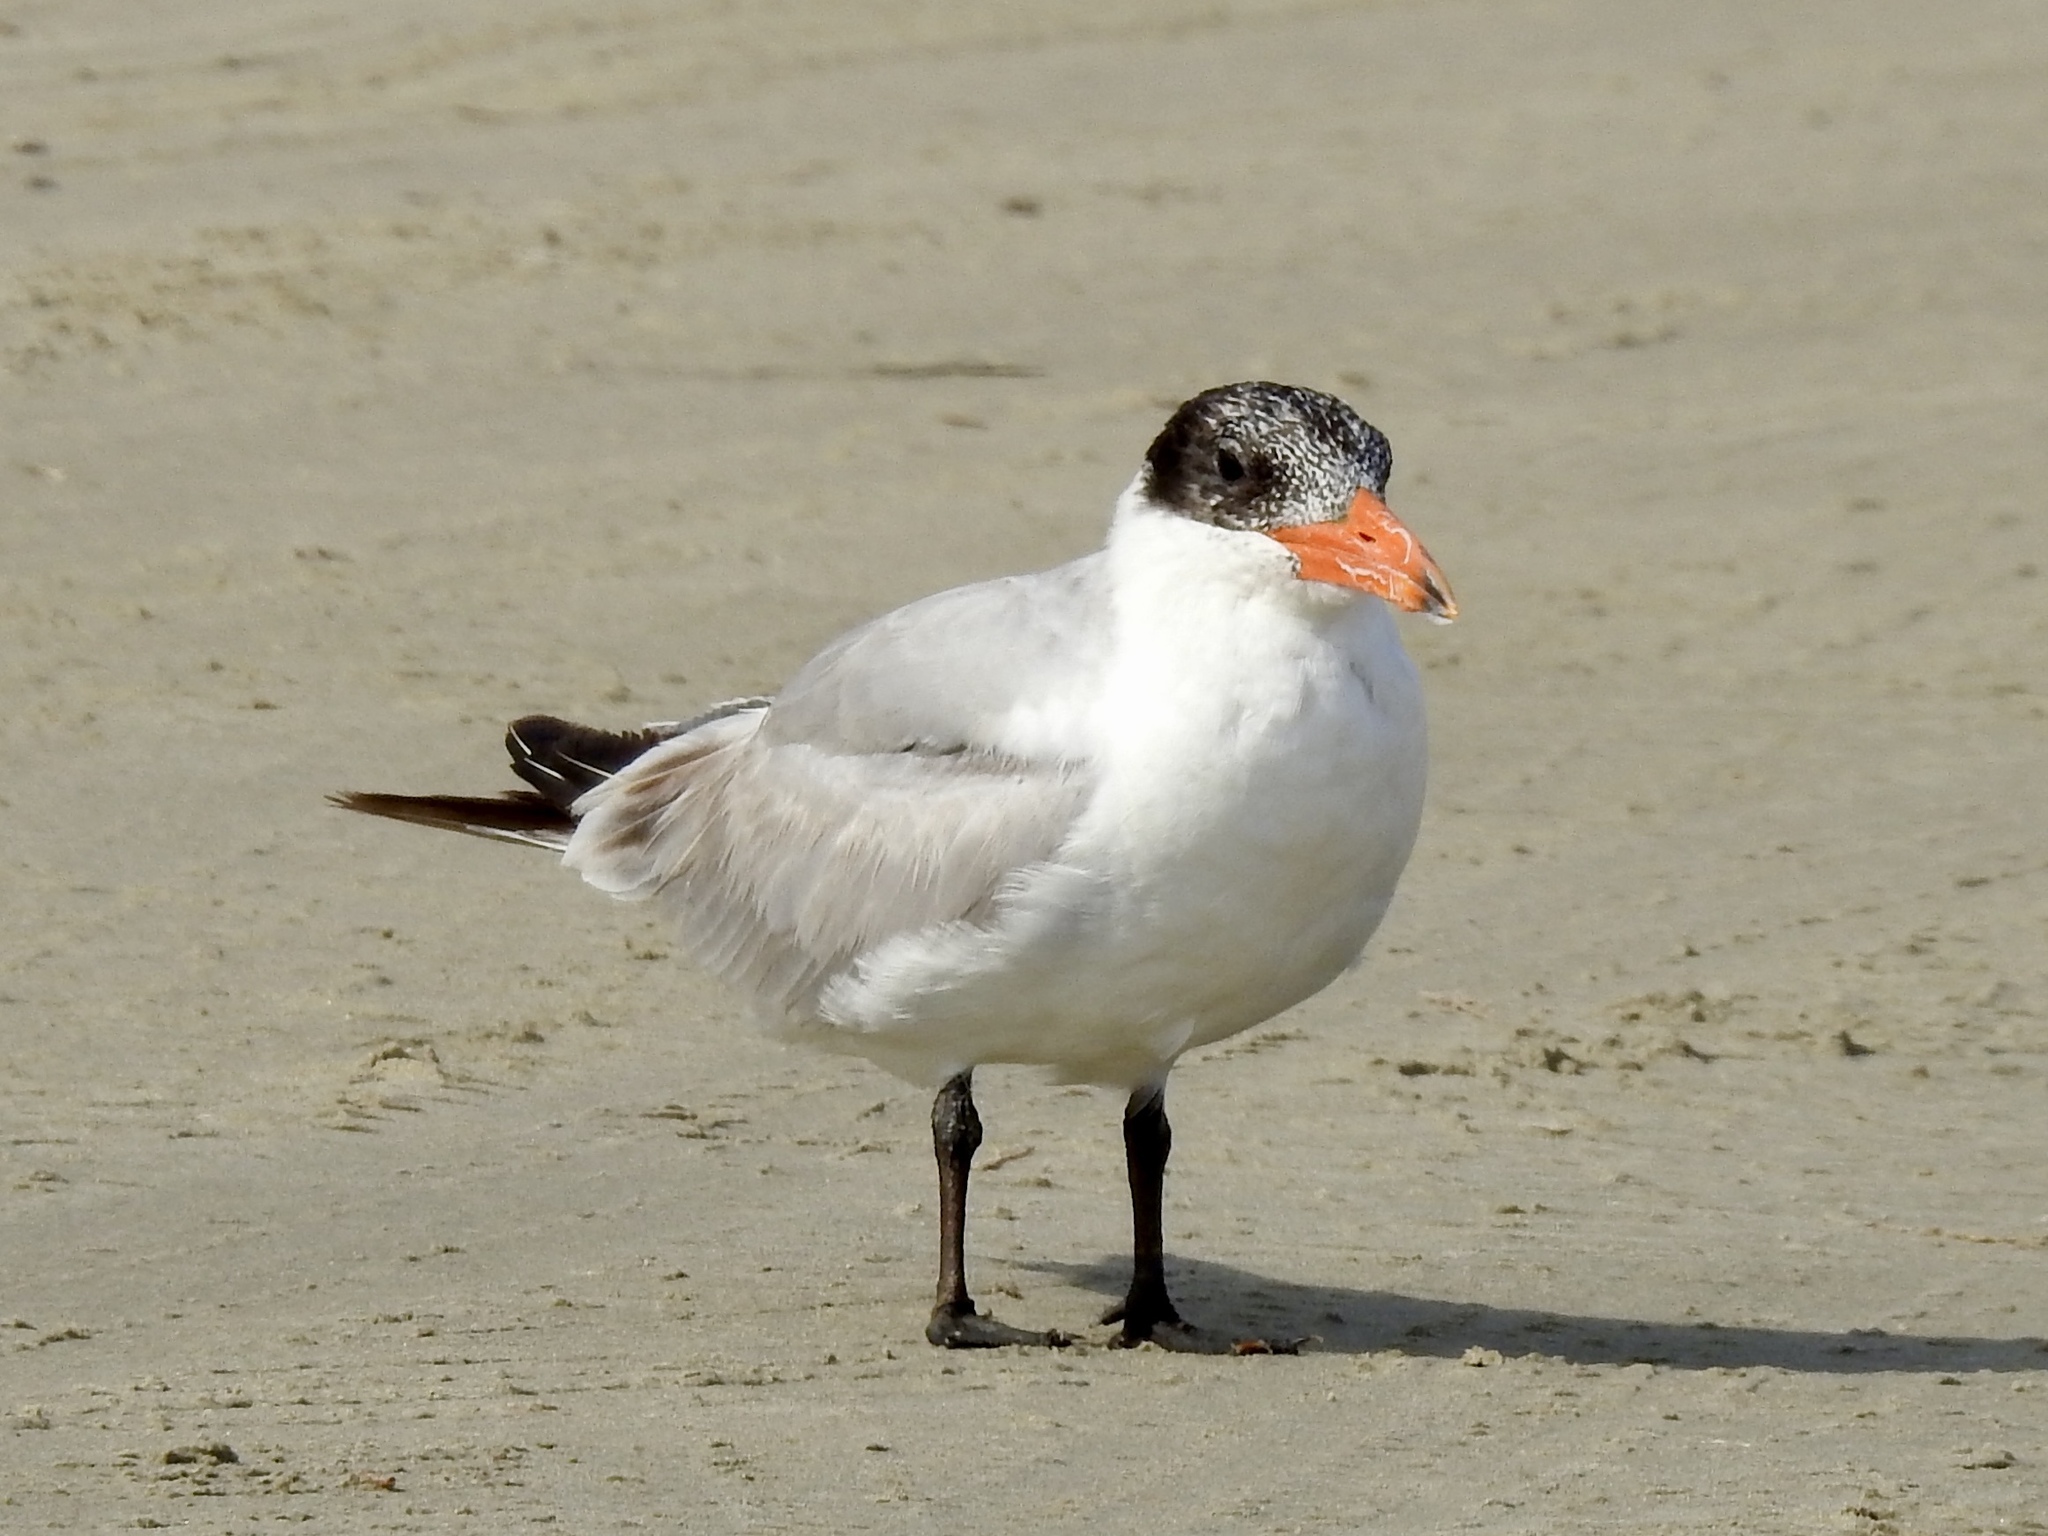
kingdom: Animalia
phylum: Chordata
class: Aves
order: Charadriiformes
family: Laridae
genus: Hydroprogne
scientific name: Hydroprogne caspia
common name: Caspian tern
